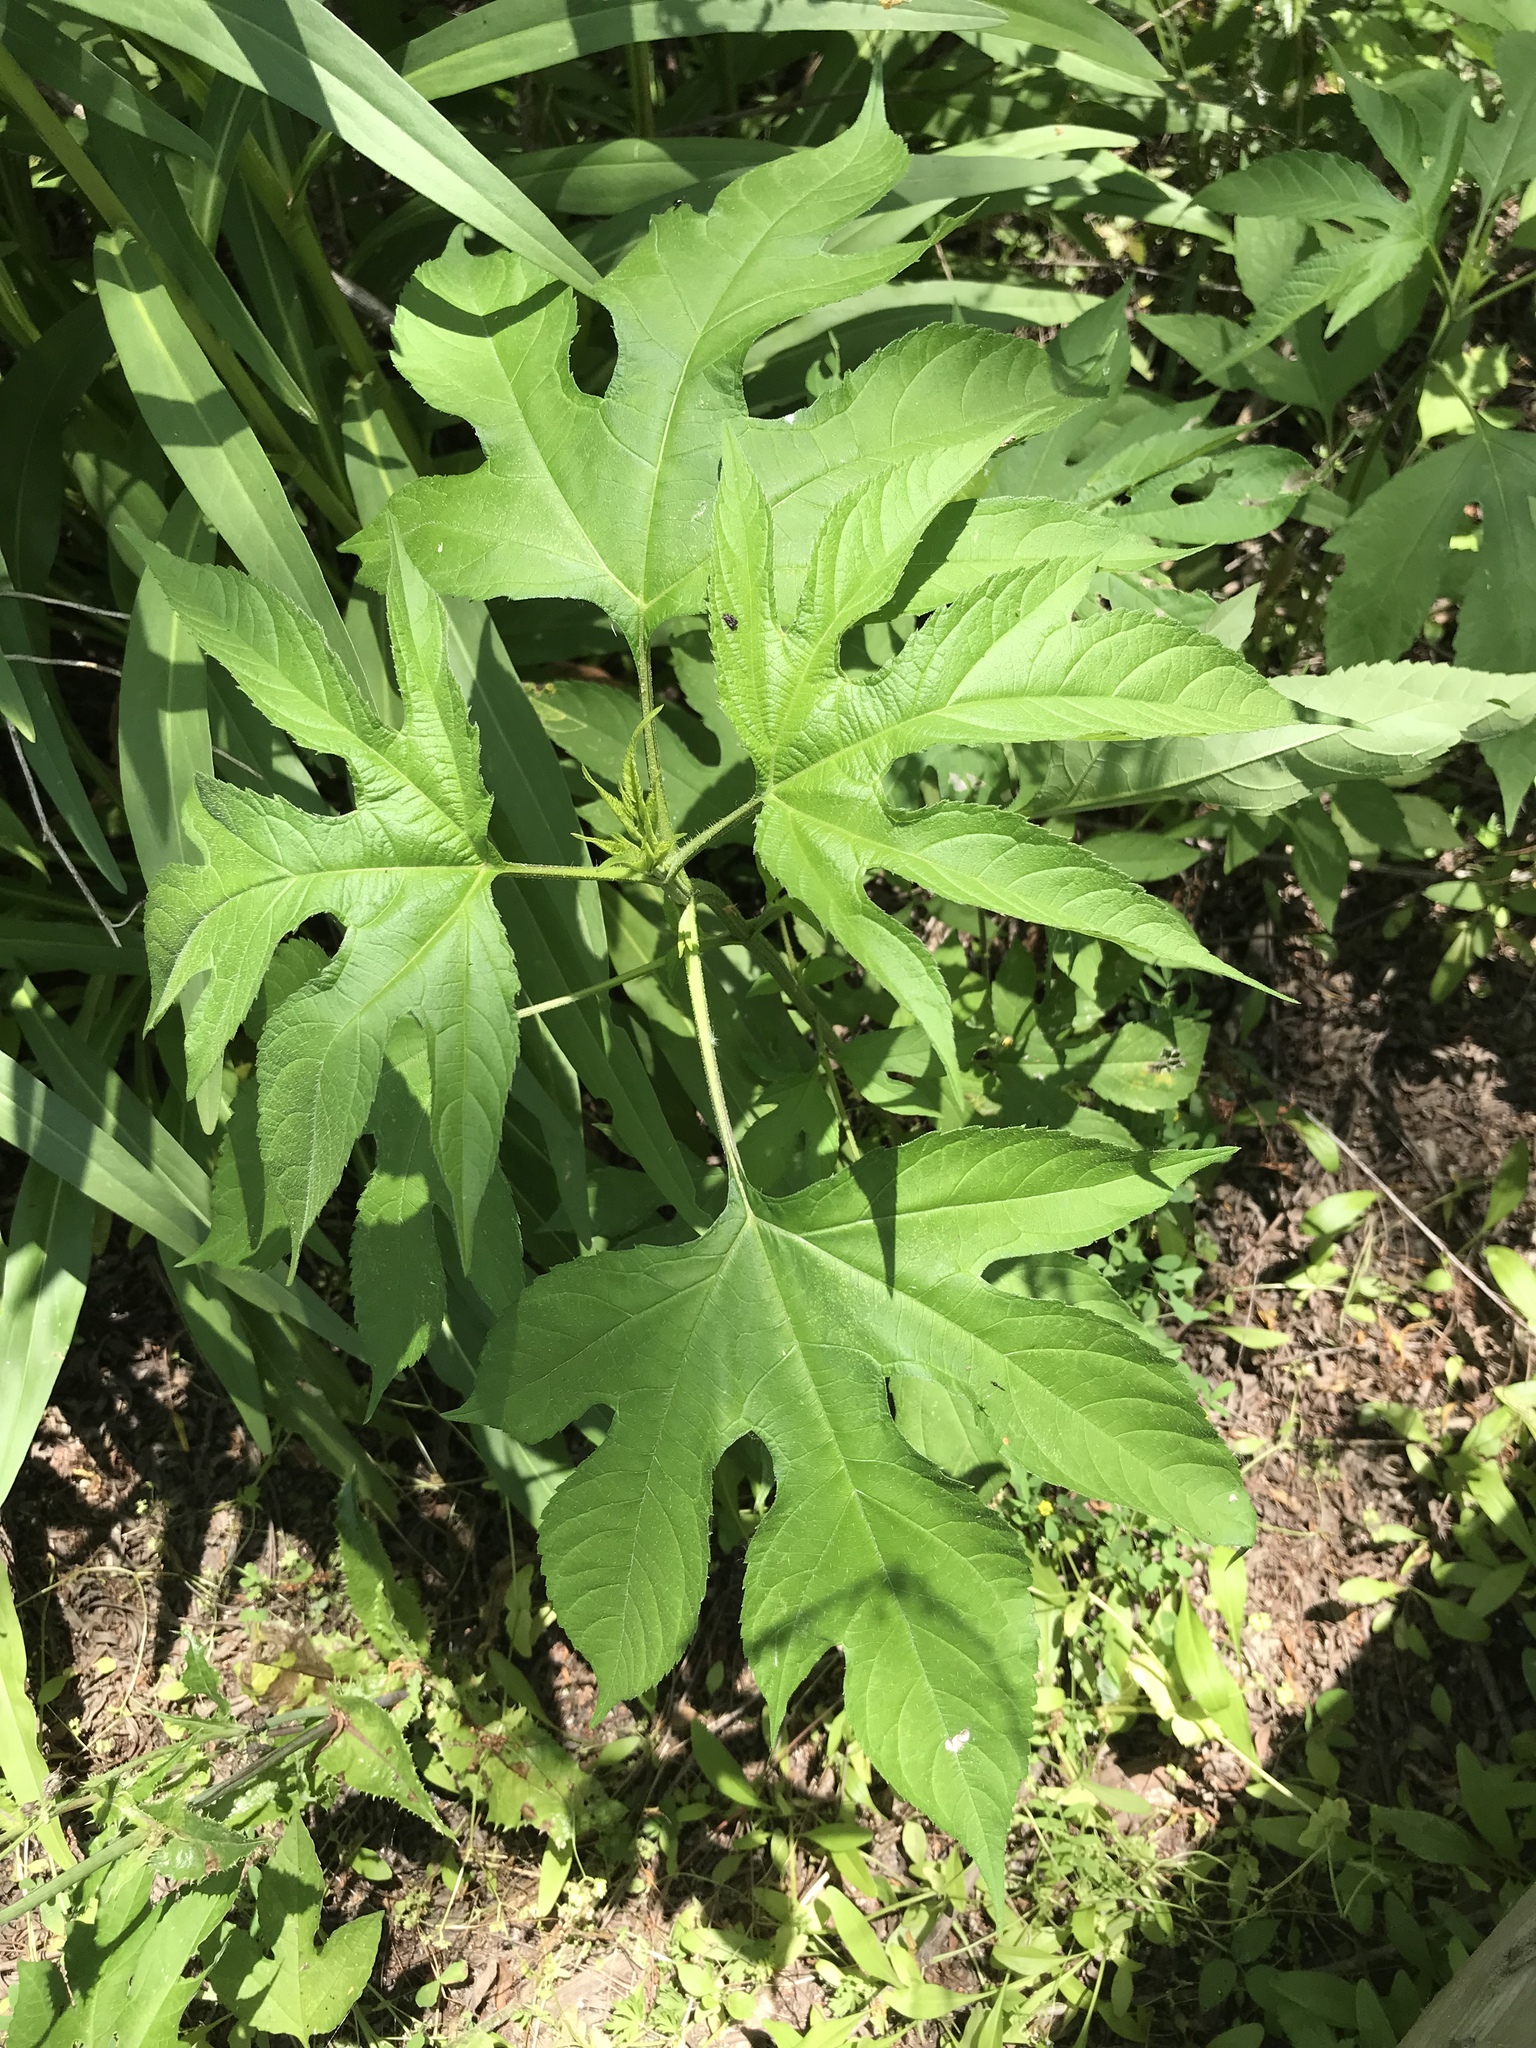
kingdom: Plantae
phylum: Tracheophyta
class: Magnoliopsida
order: Asterales
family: Asteraceae
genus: Ambrosia
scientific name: Ambrosia trifida
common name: Giant ragweed
